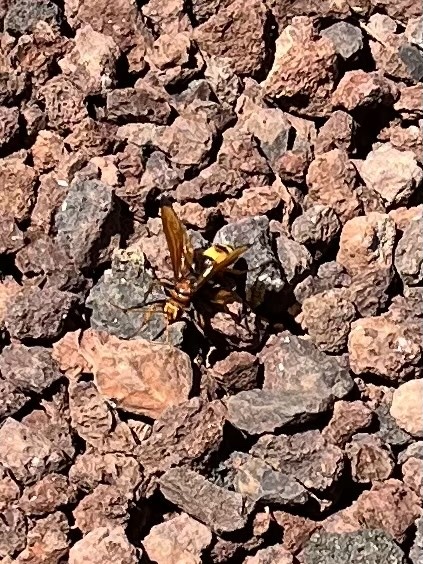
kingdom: Animalia
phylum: Arthropoda
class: Insecta
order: Hymenoptera
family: Pompilidae
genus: Cryptocheilus
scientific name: Cryptocheilus alternatus
